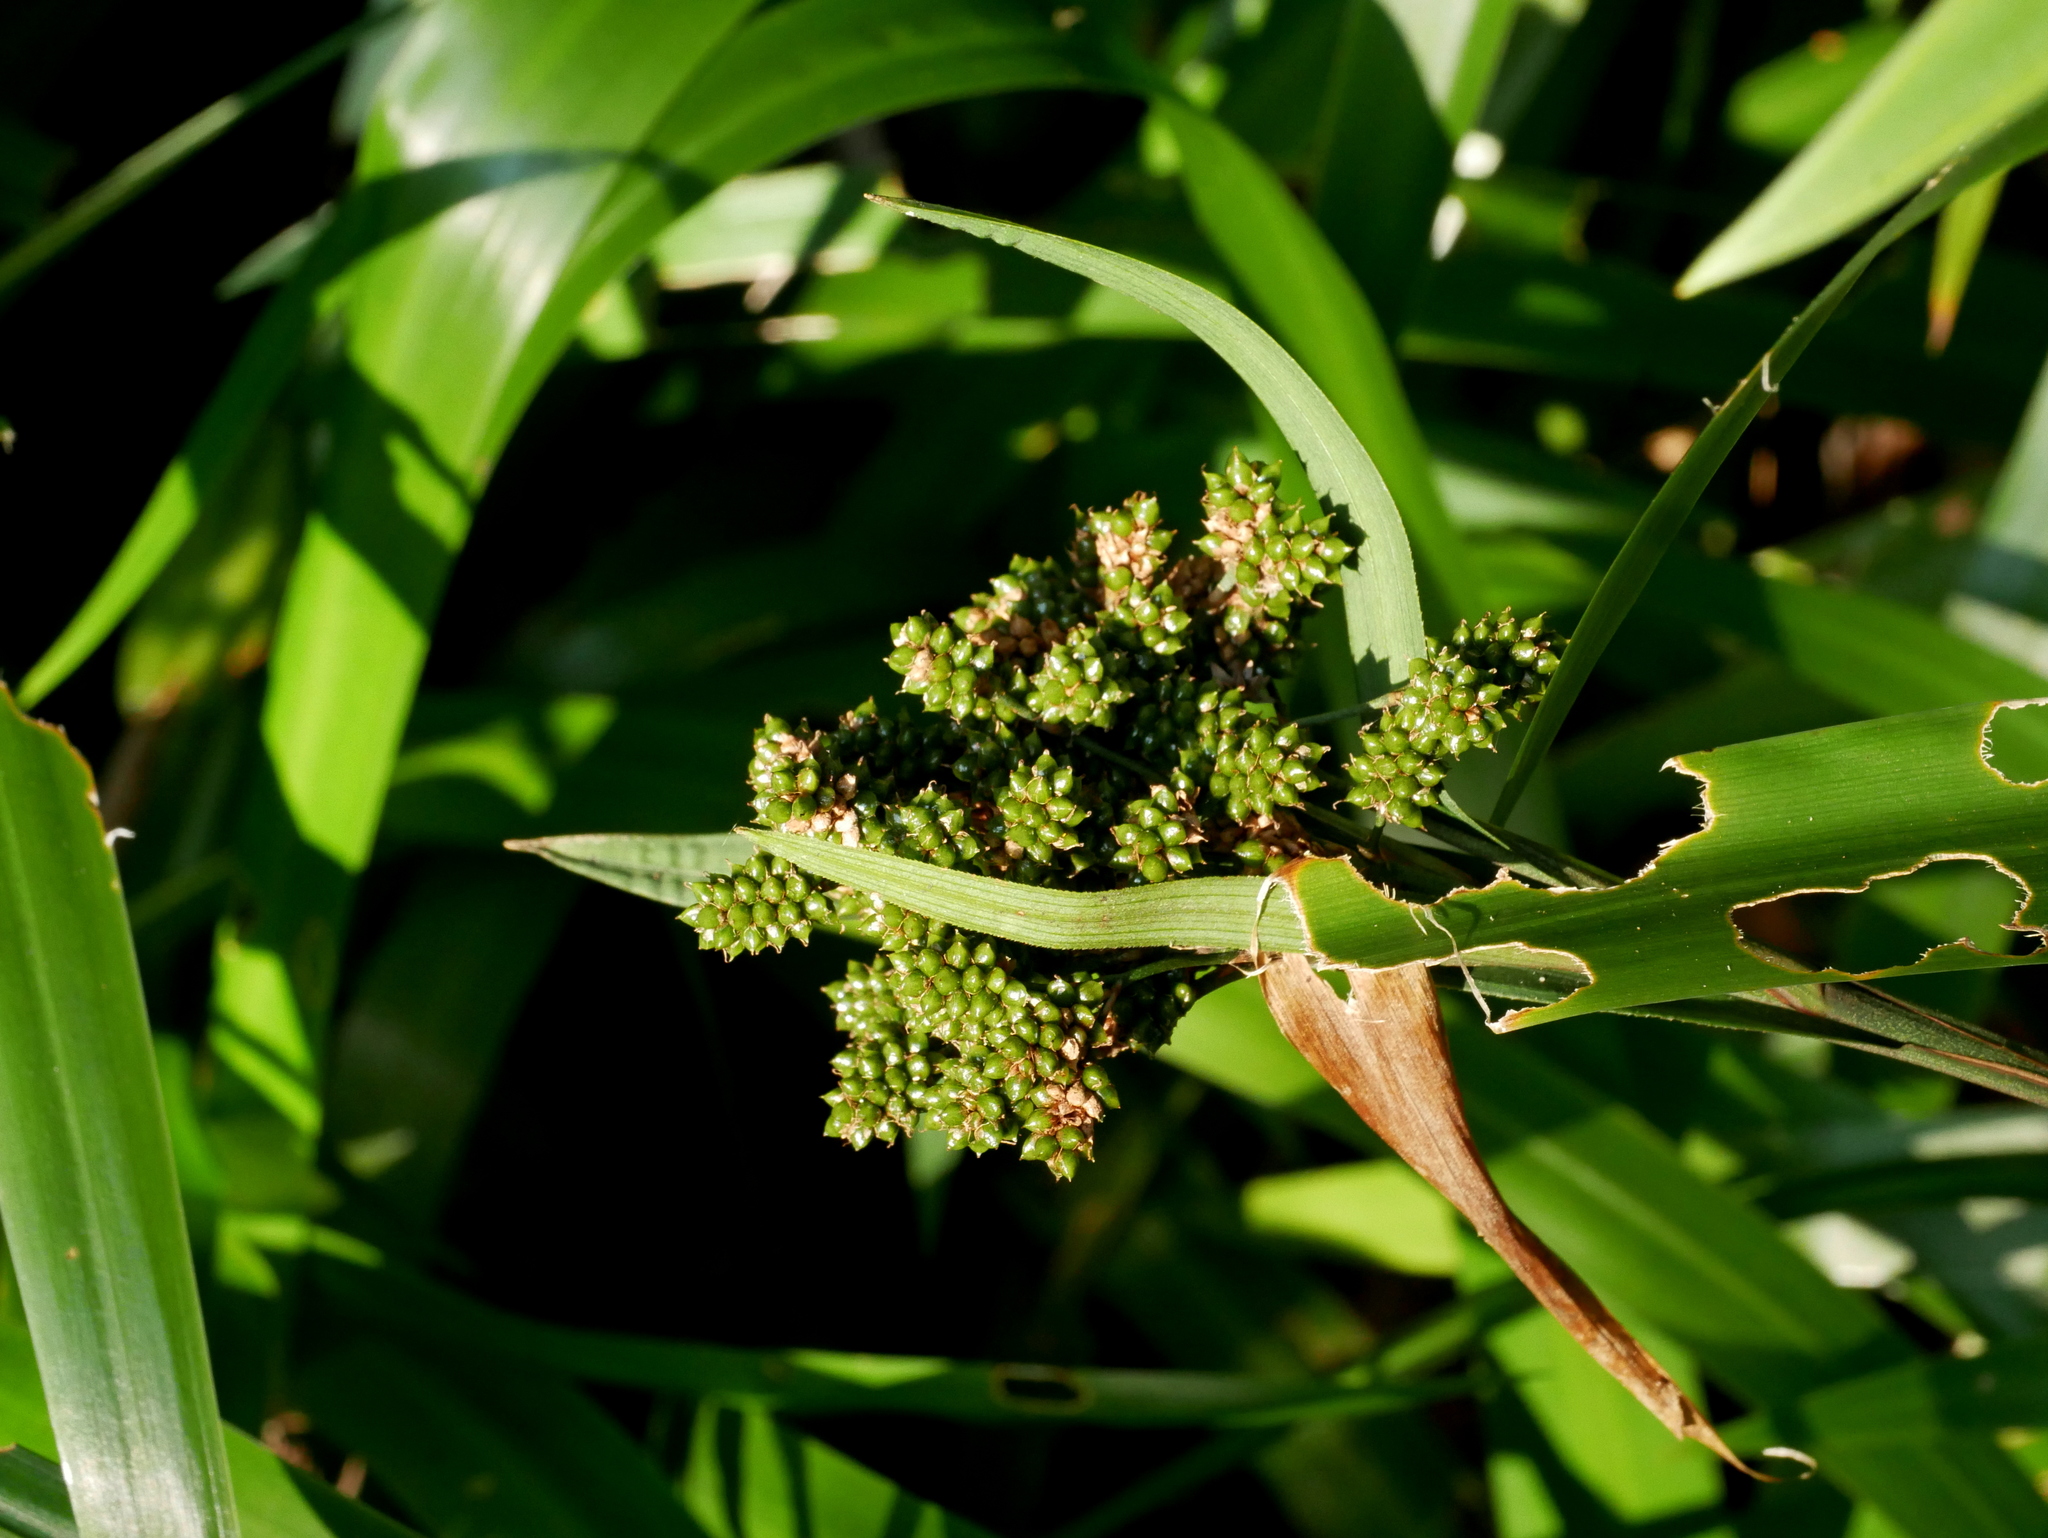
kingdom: Plantae
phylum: Tracheophyta
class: Liliopsida
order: Poales
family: Cyperaceae
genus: Hypolytrum
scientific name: Hypolytrum nemorum
